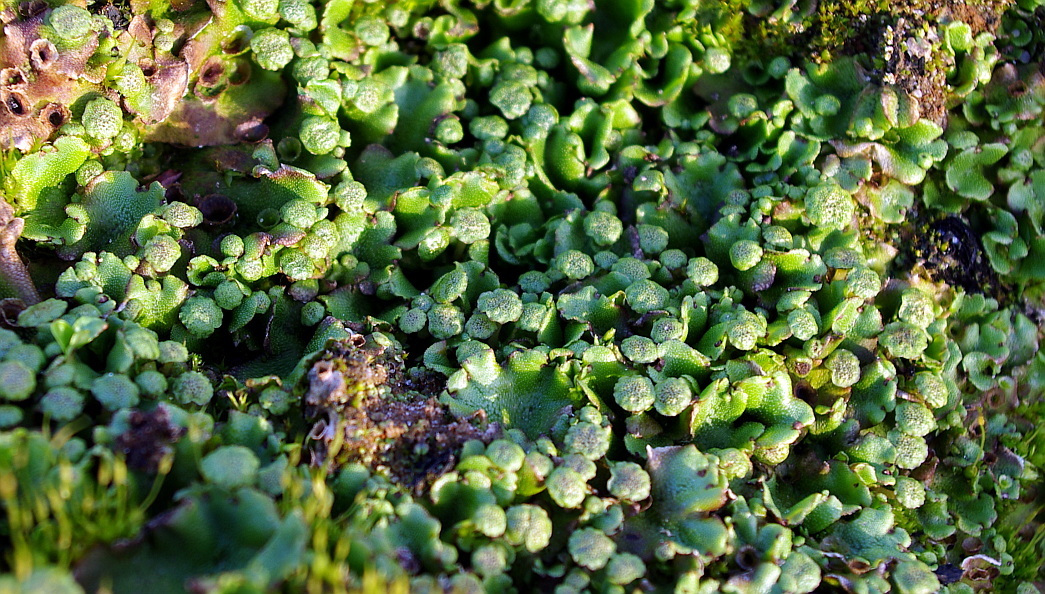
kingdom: Plantae
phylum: Marchantiophyta
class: Marchantiopsida
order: Marchantiales
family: Marchantiaceae
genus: Marchantia
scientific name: Marchantia polymorpha
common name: Common liverwort
